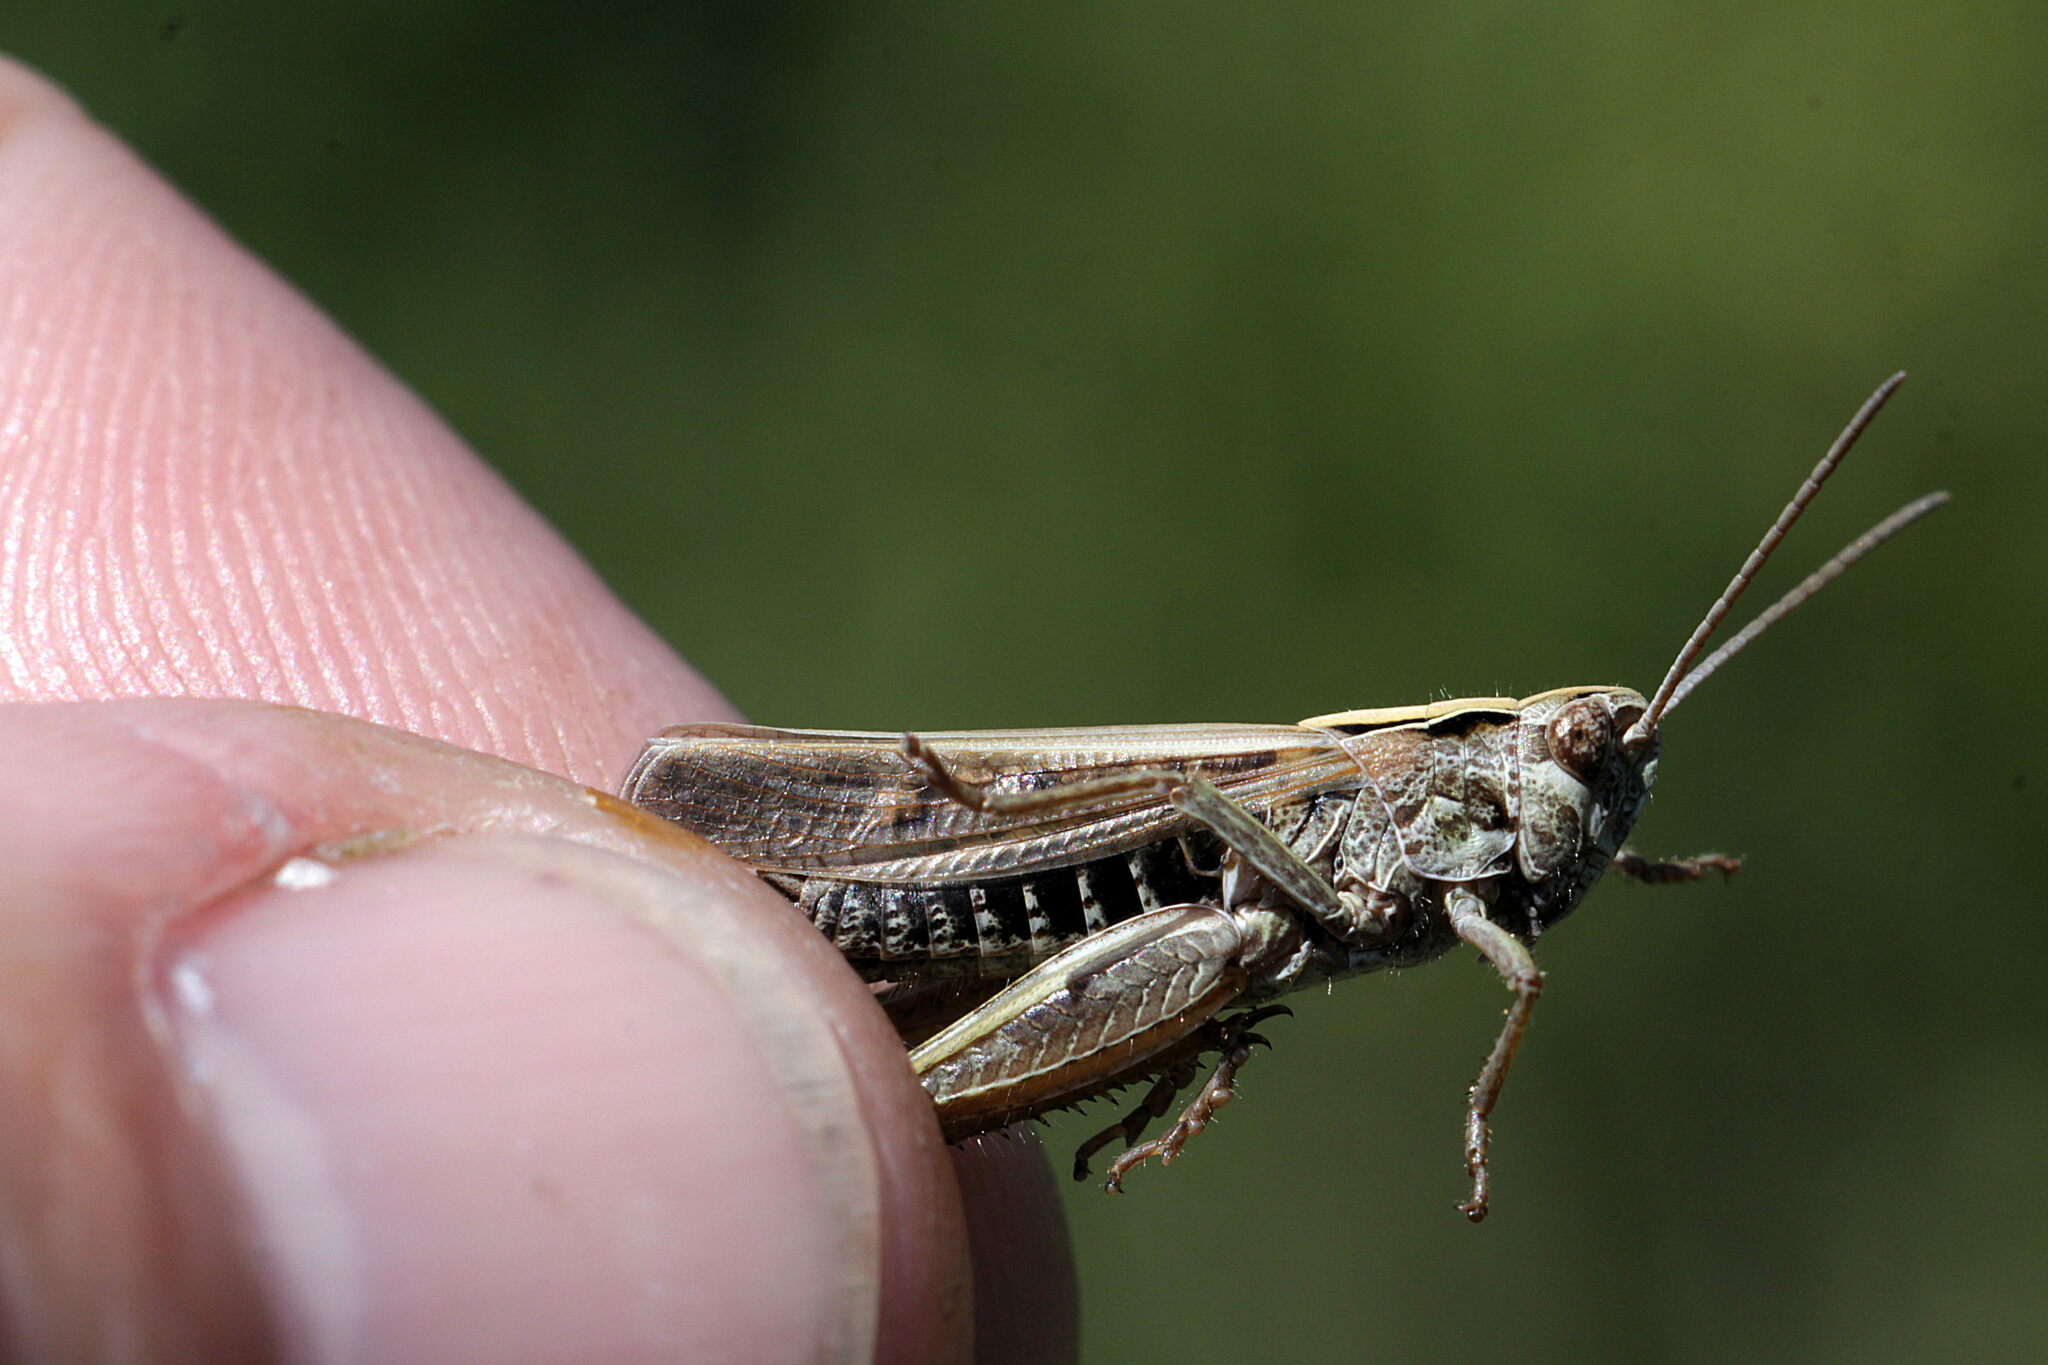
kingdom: Animalia
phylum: Arthropoda
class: Insecta
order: Orthoptera
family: Acrididae
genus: Omocestus
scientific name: Omocestus viridulus
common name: Common green grasshopper
